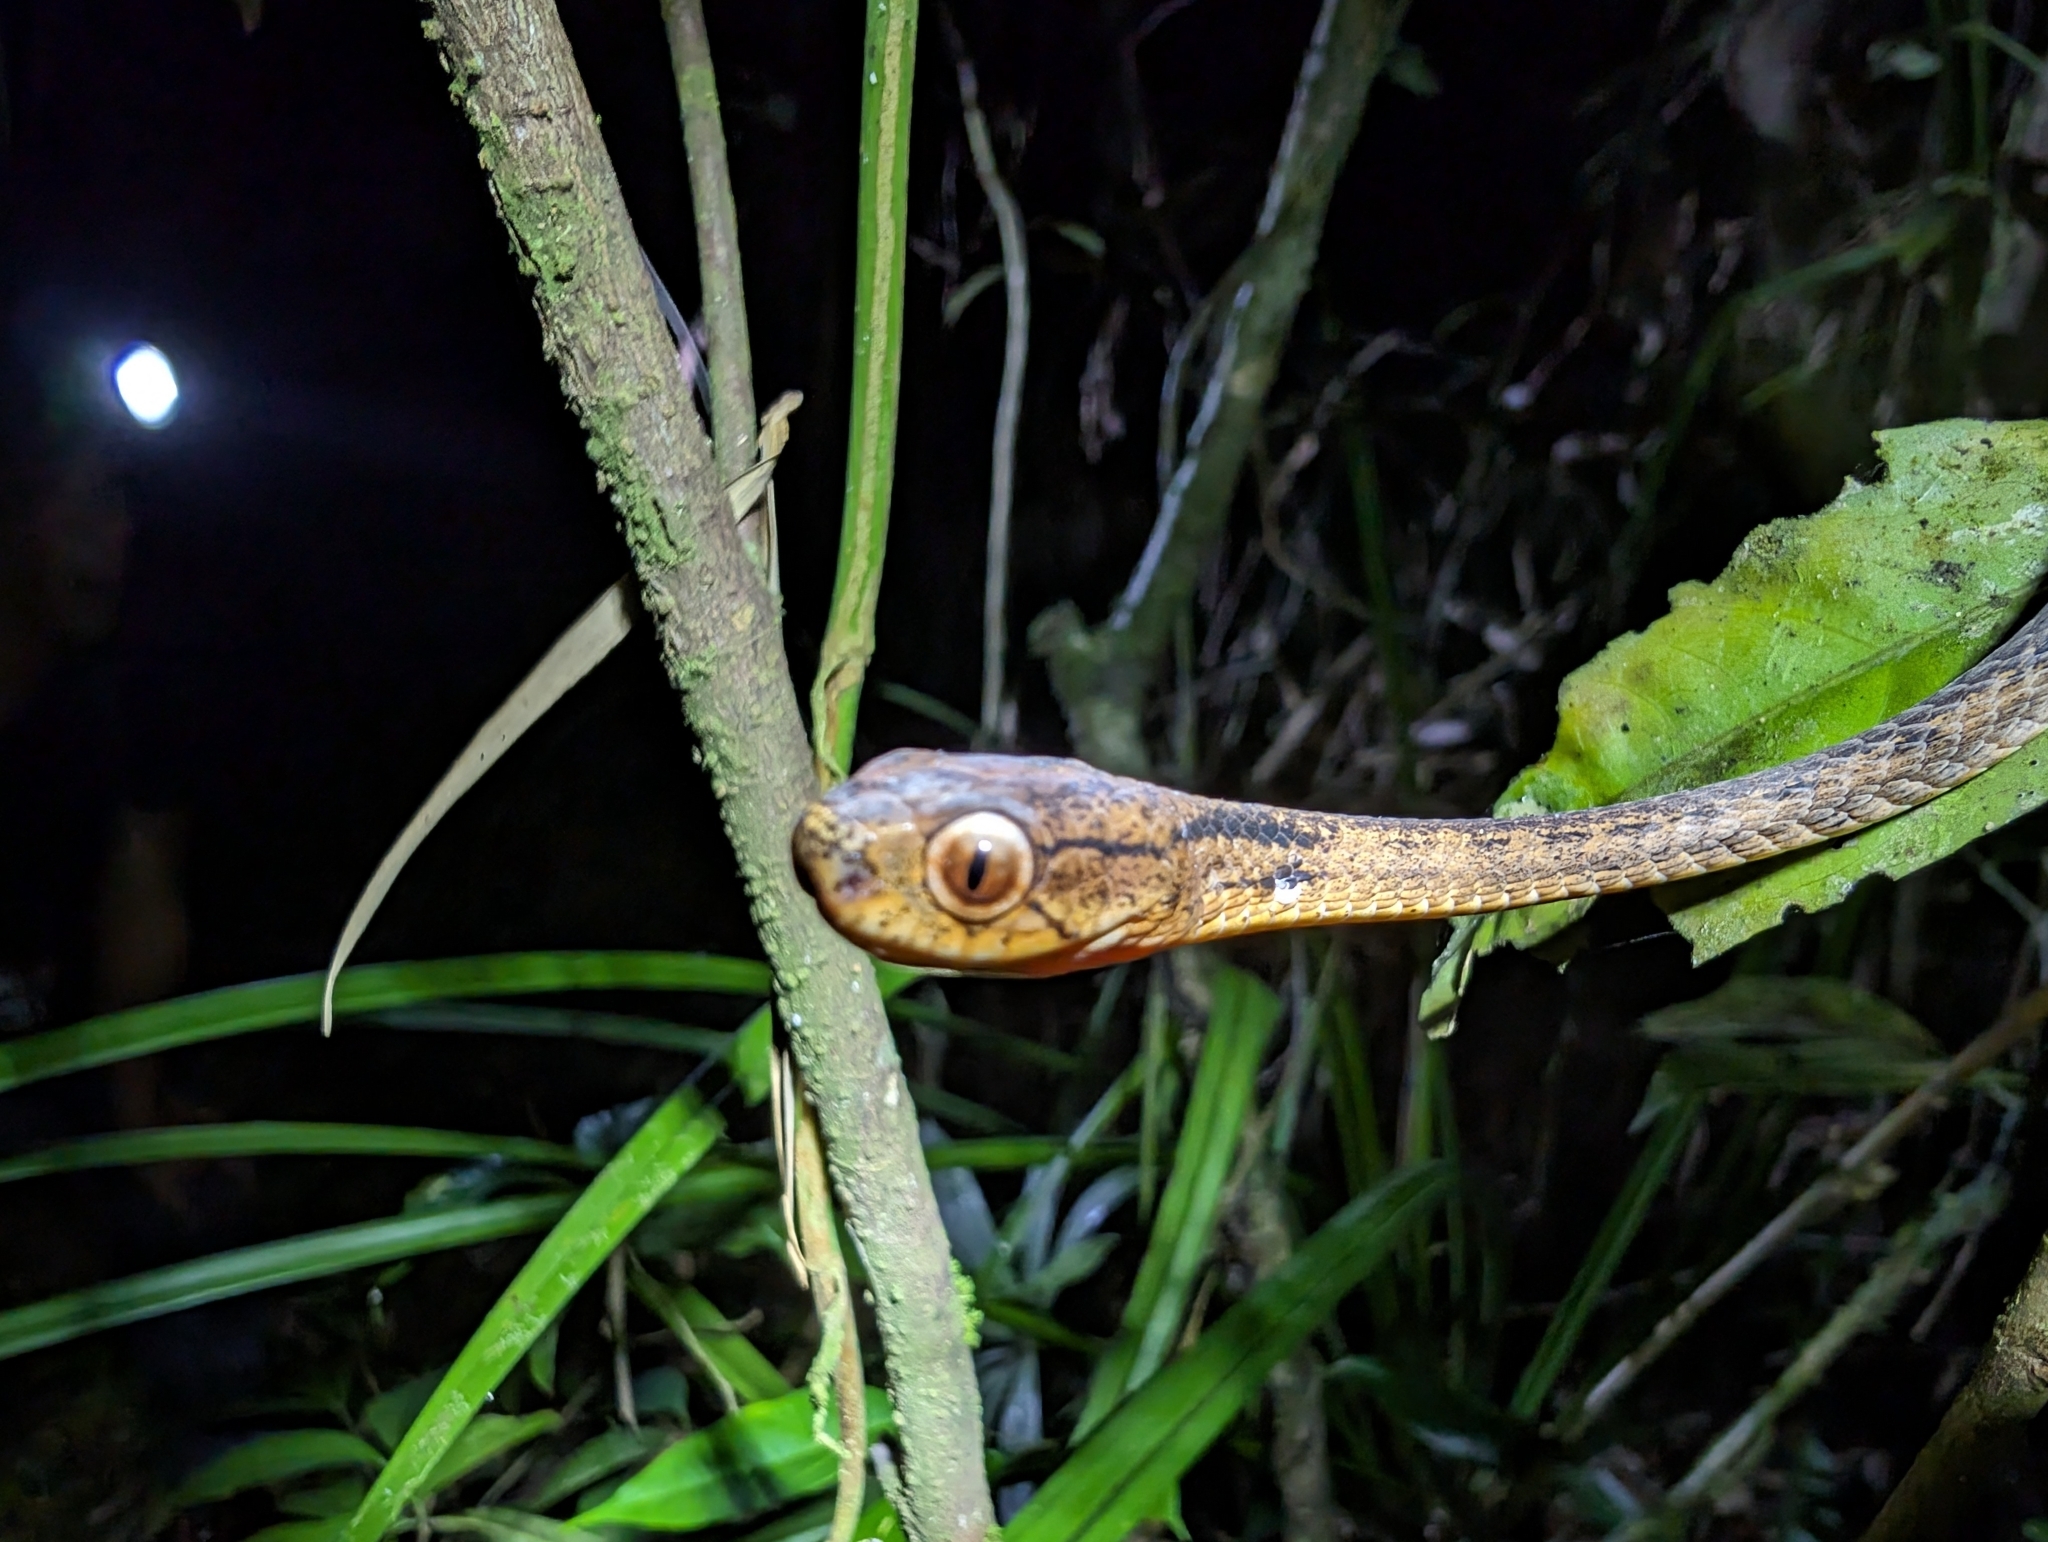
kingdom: Animalia
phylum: Chordata
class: Squamata
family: Pareidae
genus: Pareas
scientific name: Pareas carinatus
